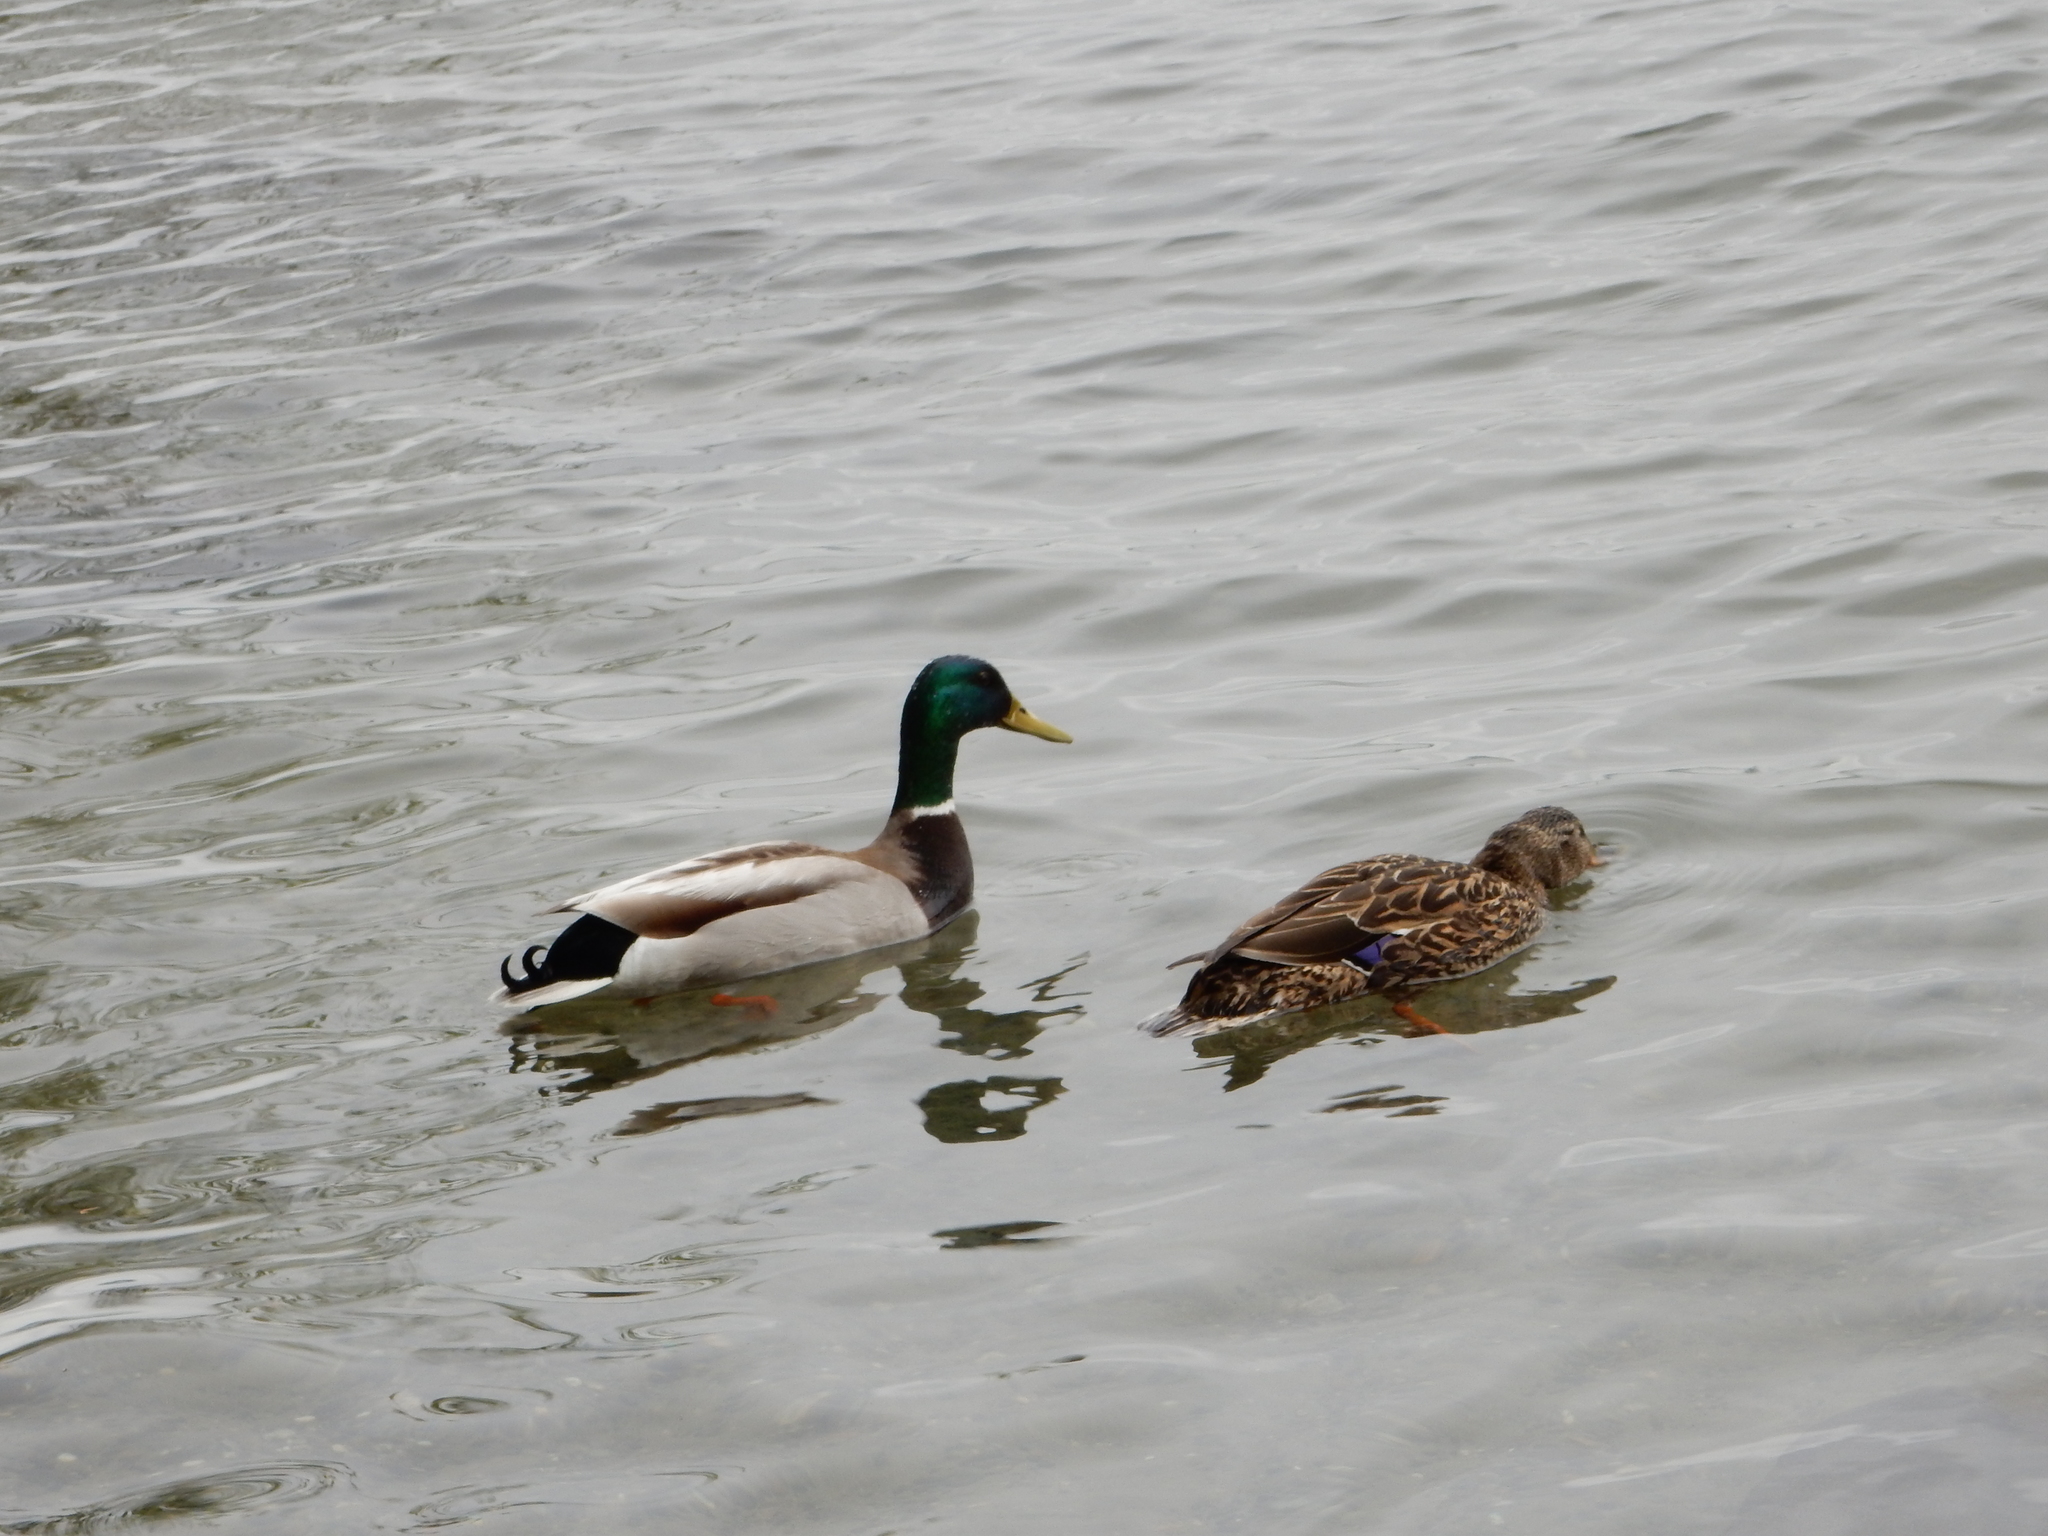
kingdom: Animalia
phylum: Chordata
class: Aves
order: Anseriformes
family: Anatidae
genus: Anas
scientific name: Anas platyrhynchos
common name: Mallard
